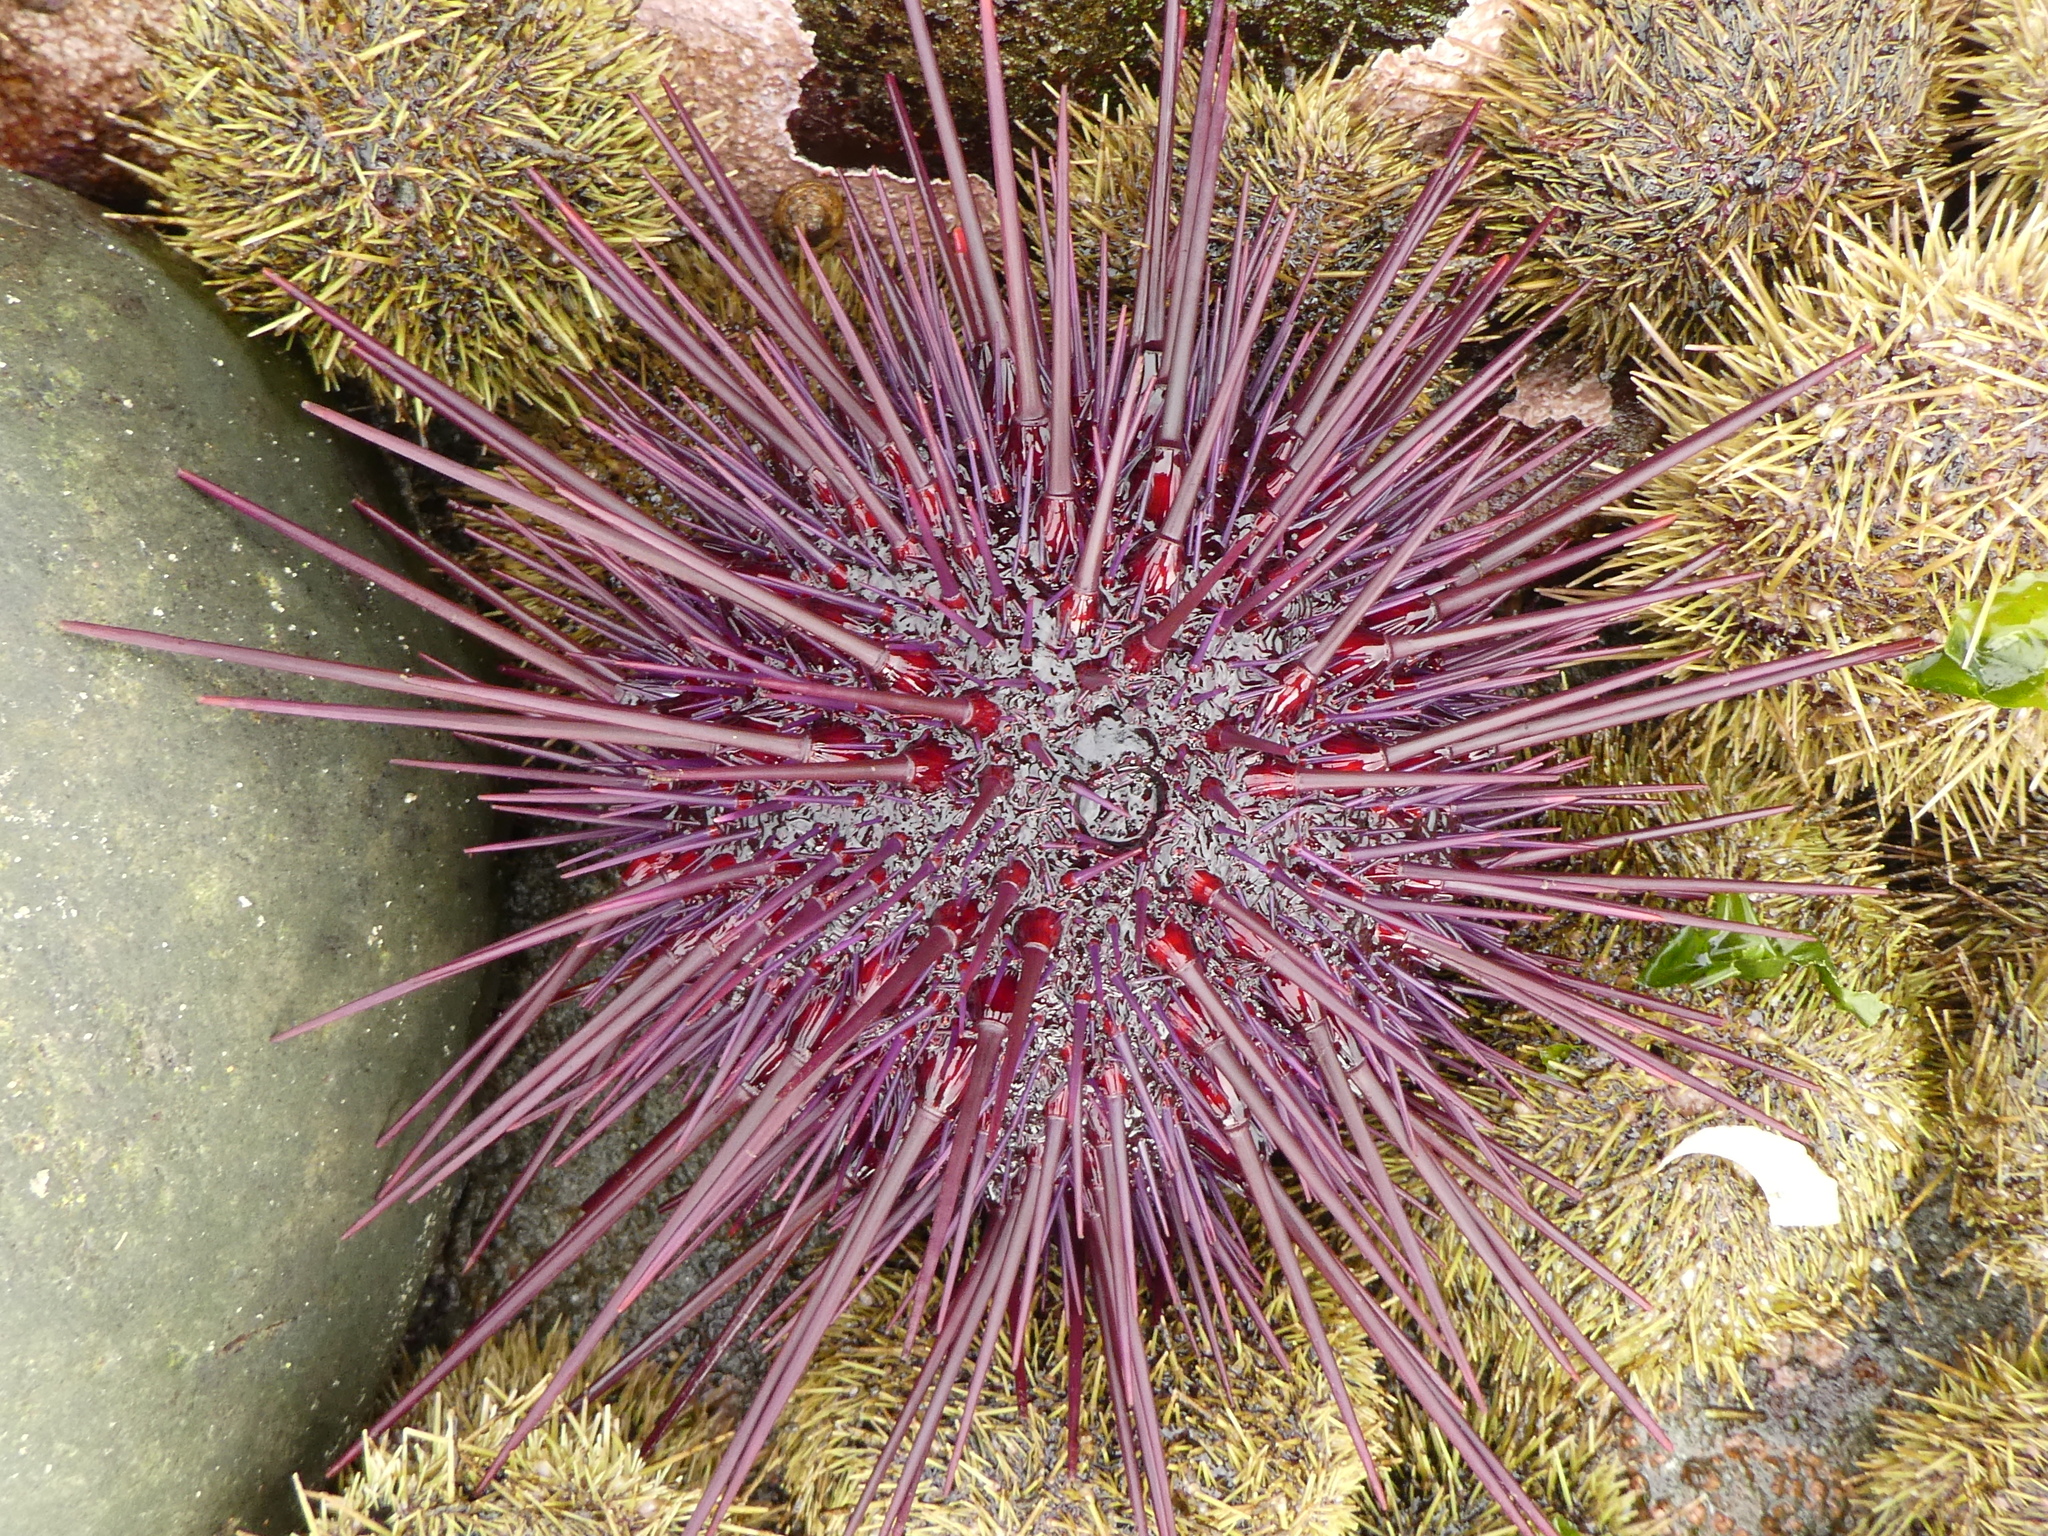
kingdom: Animalia
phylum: Echinodermata
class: Echinoidea
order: Camarodonta
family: Strongylocentrotidae
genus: Mesocentrotus
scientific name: Mesocentrotus franciscanus
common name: Red sea urchin
